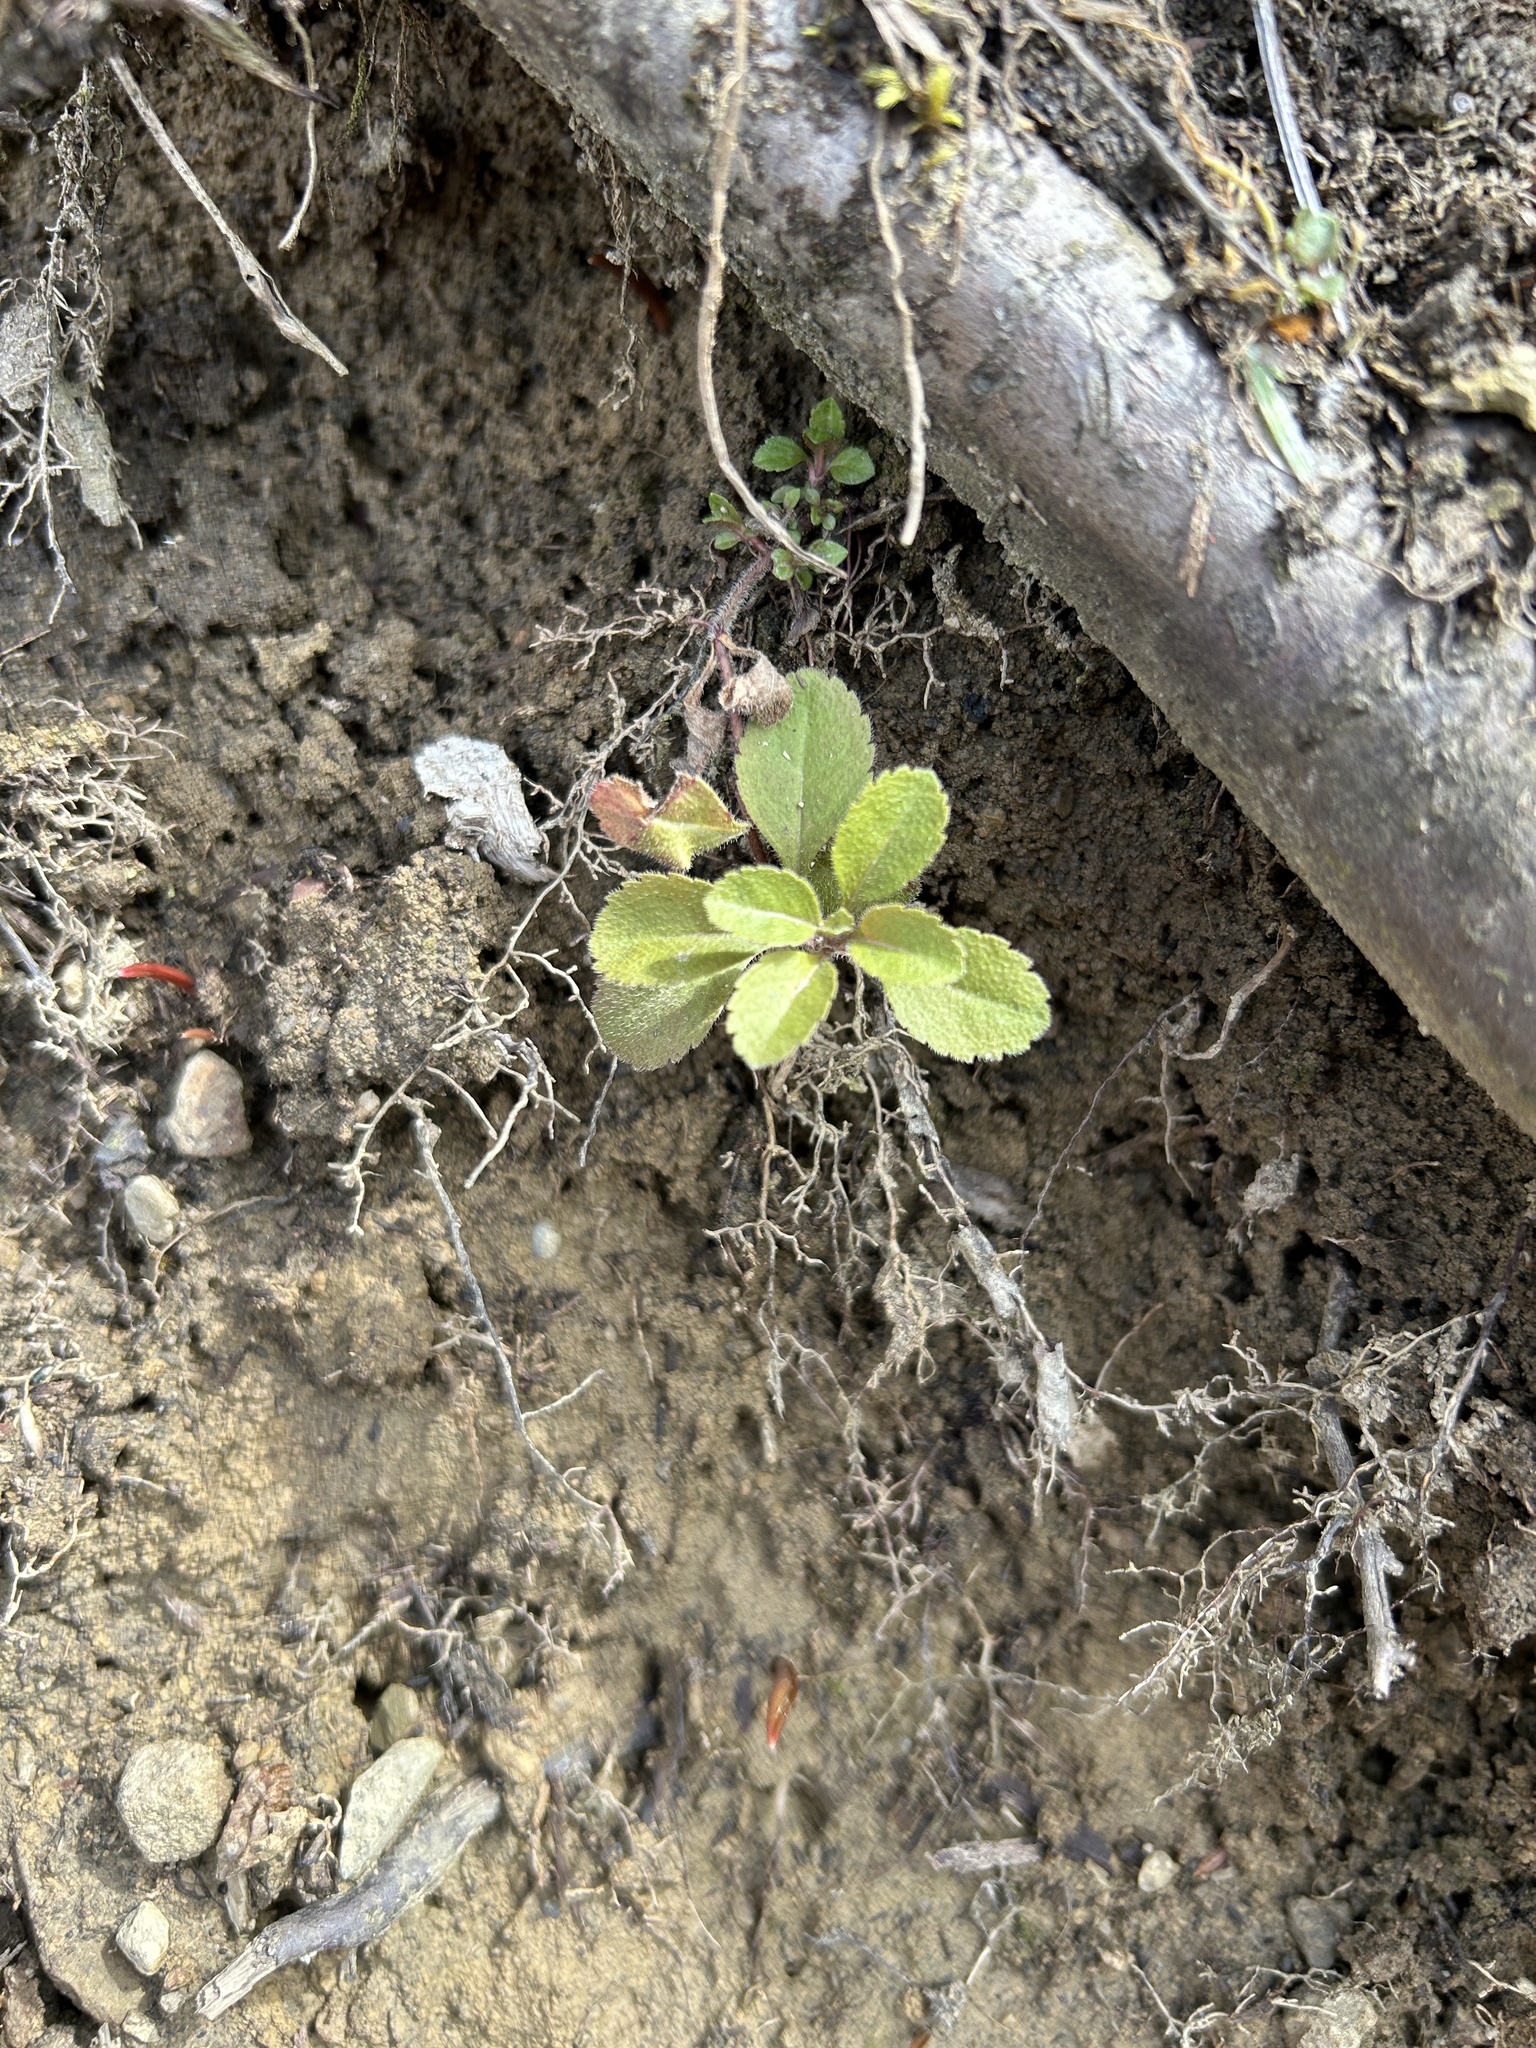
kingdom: Plantae
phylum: Tracheophyta
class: Magnoliopsida
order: Lamiales
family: Plantaginaceae
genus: Veronica
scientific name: Veronica officinalis
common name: Common speedwell
